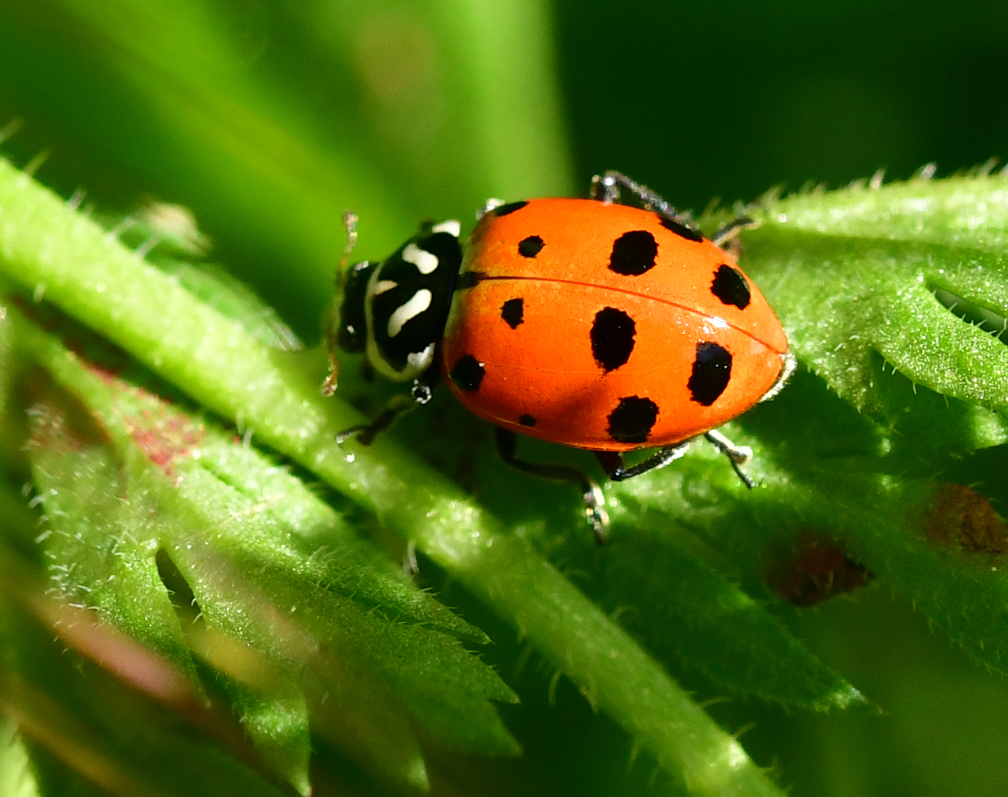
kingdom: Animalia
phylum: Arthropoda
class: Insecta
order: Coleoptera
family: Coccinellidae
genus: Hippodamia
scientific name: Hippodamia convergens
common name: Convergent lady beetle
